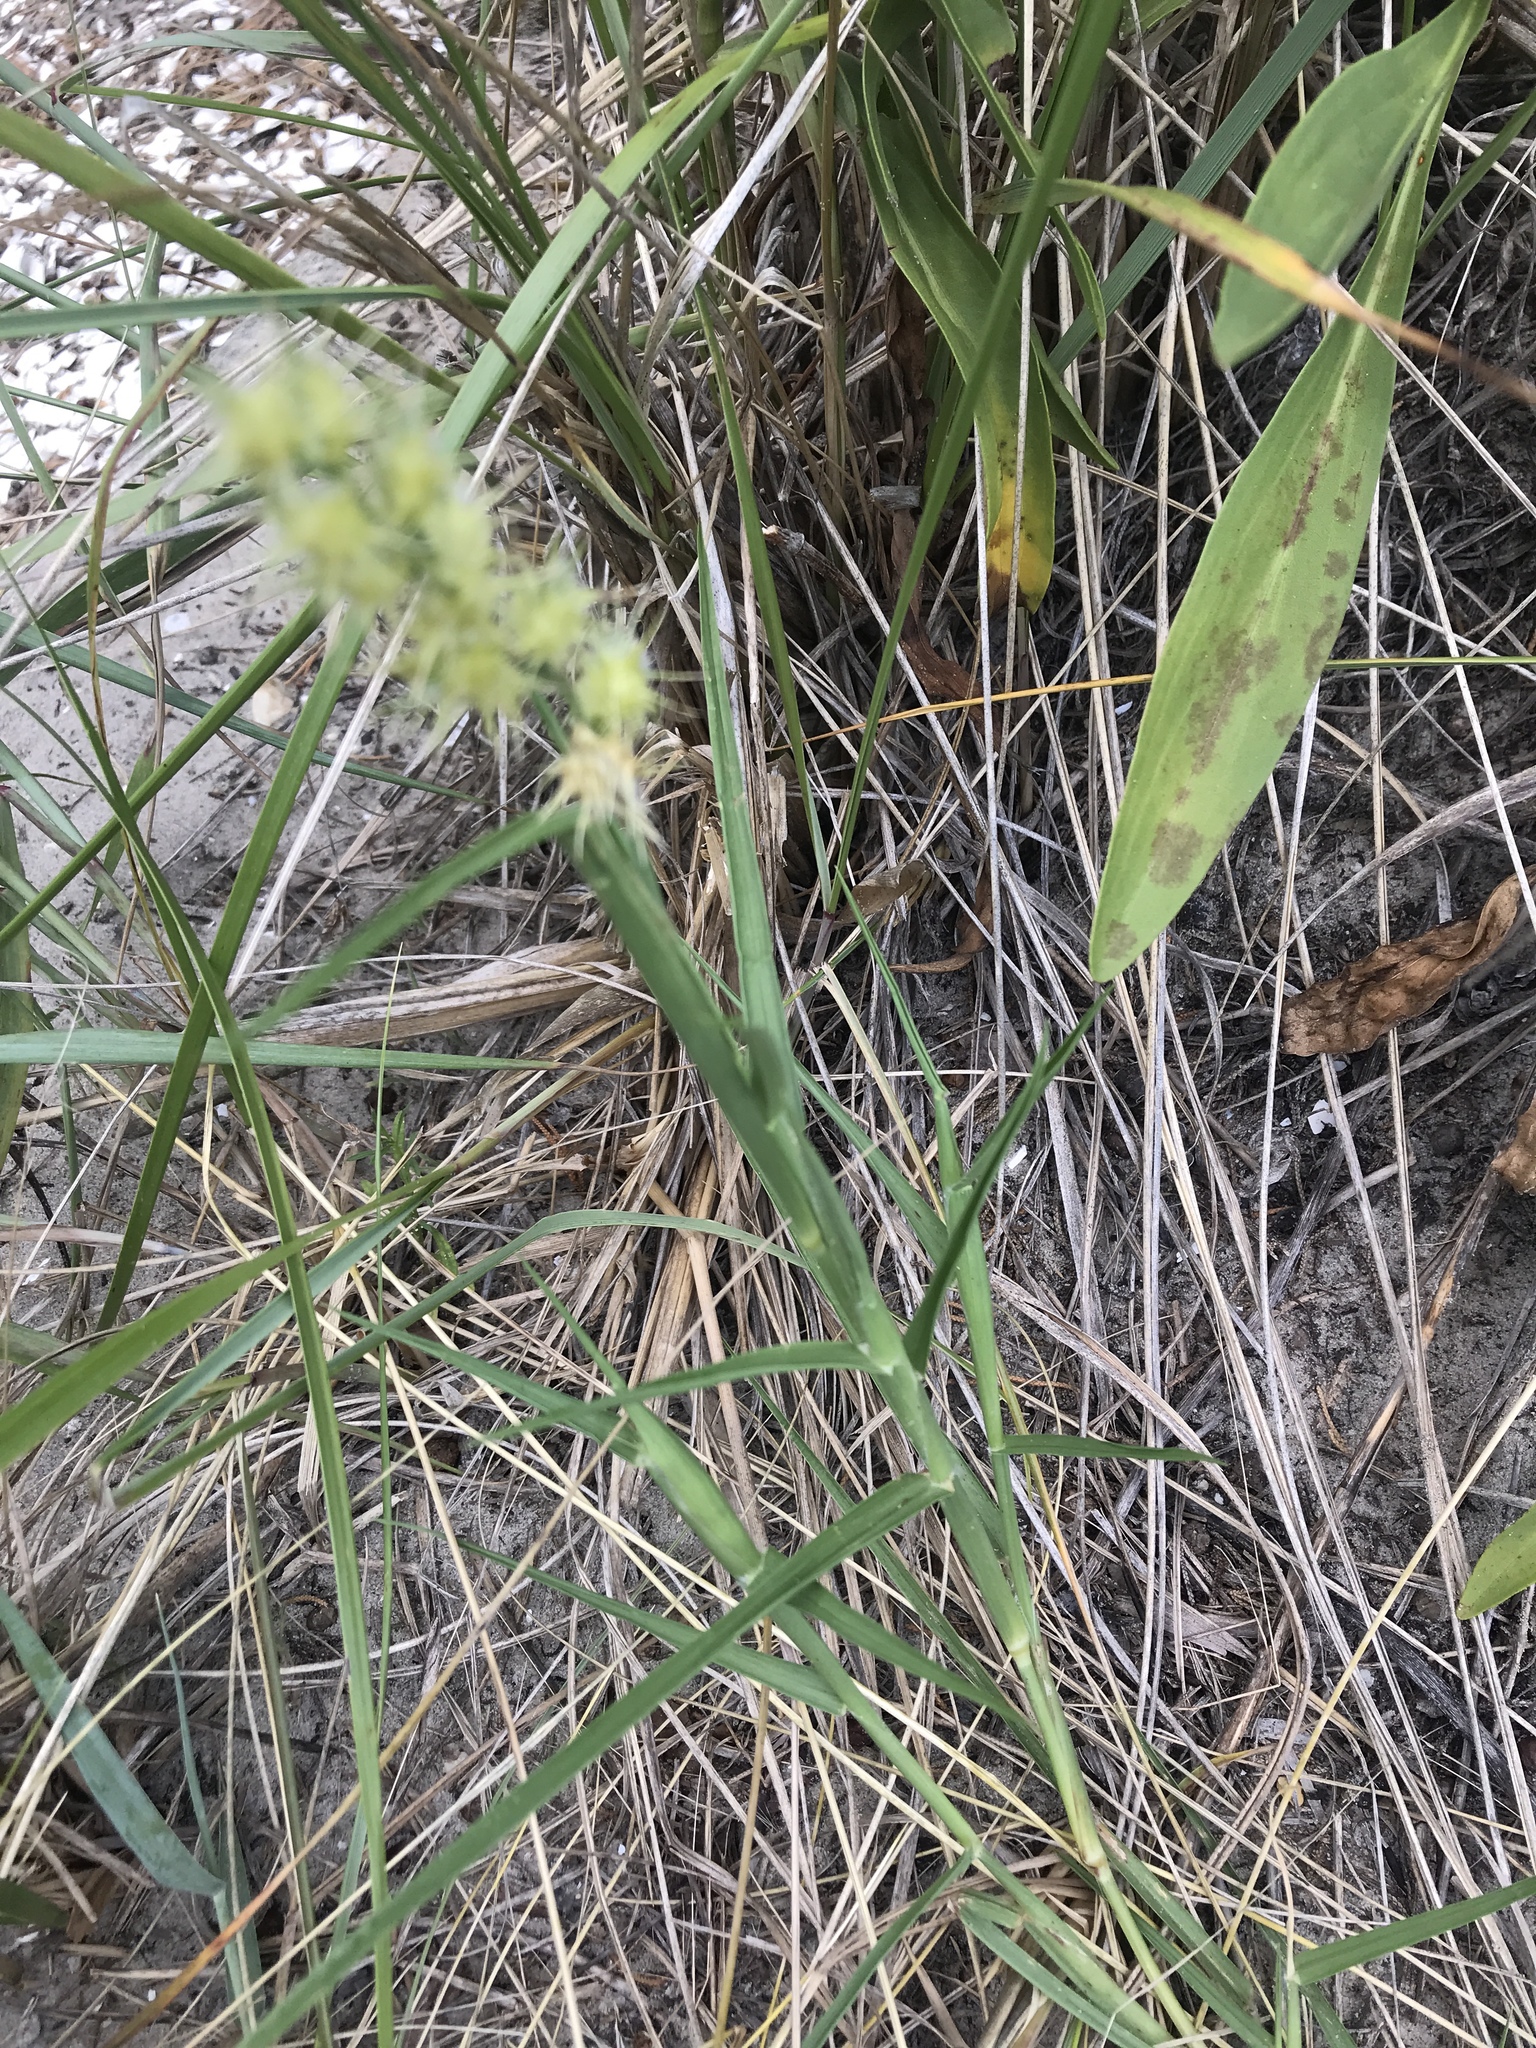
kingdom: Plantae
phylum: Tracheophyta
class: Liliopsida
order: Poales
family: Poaceae
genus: Cenchrus
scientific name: Cenchrus spinifex
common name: Coast sandbur
